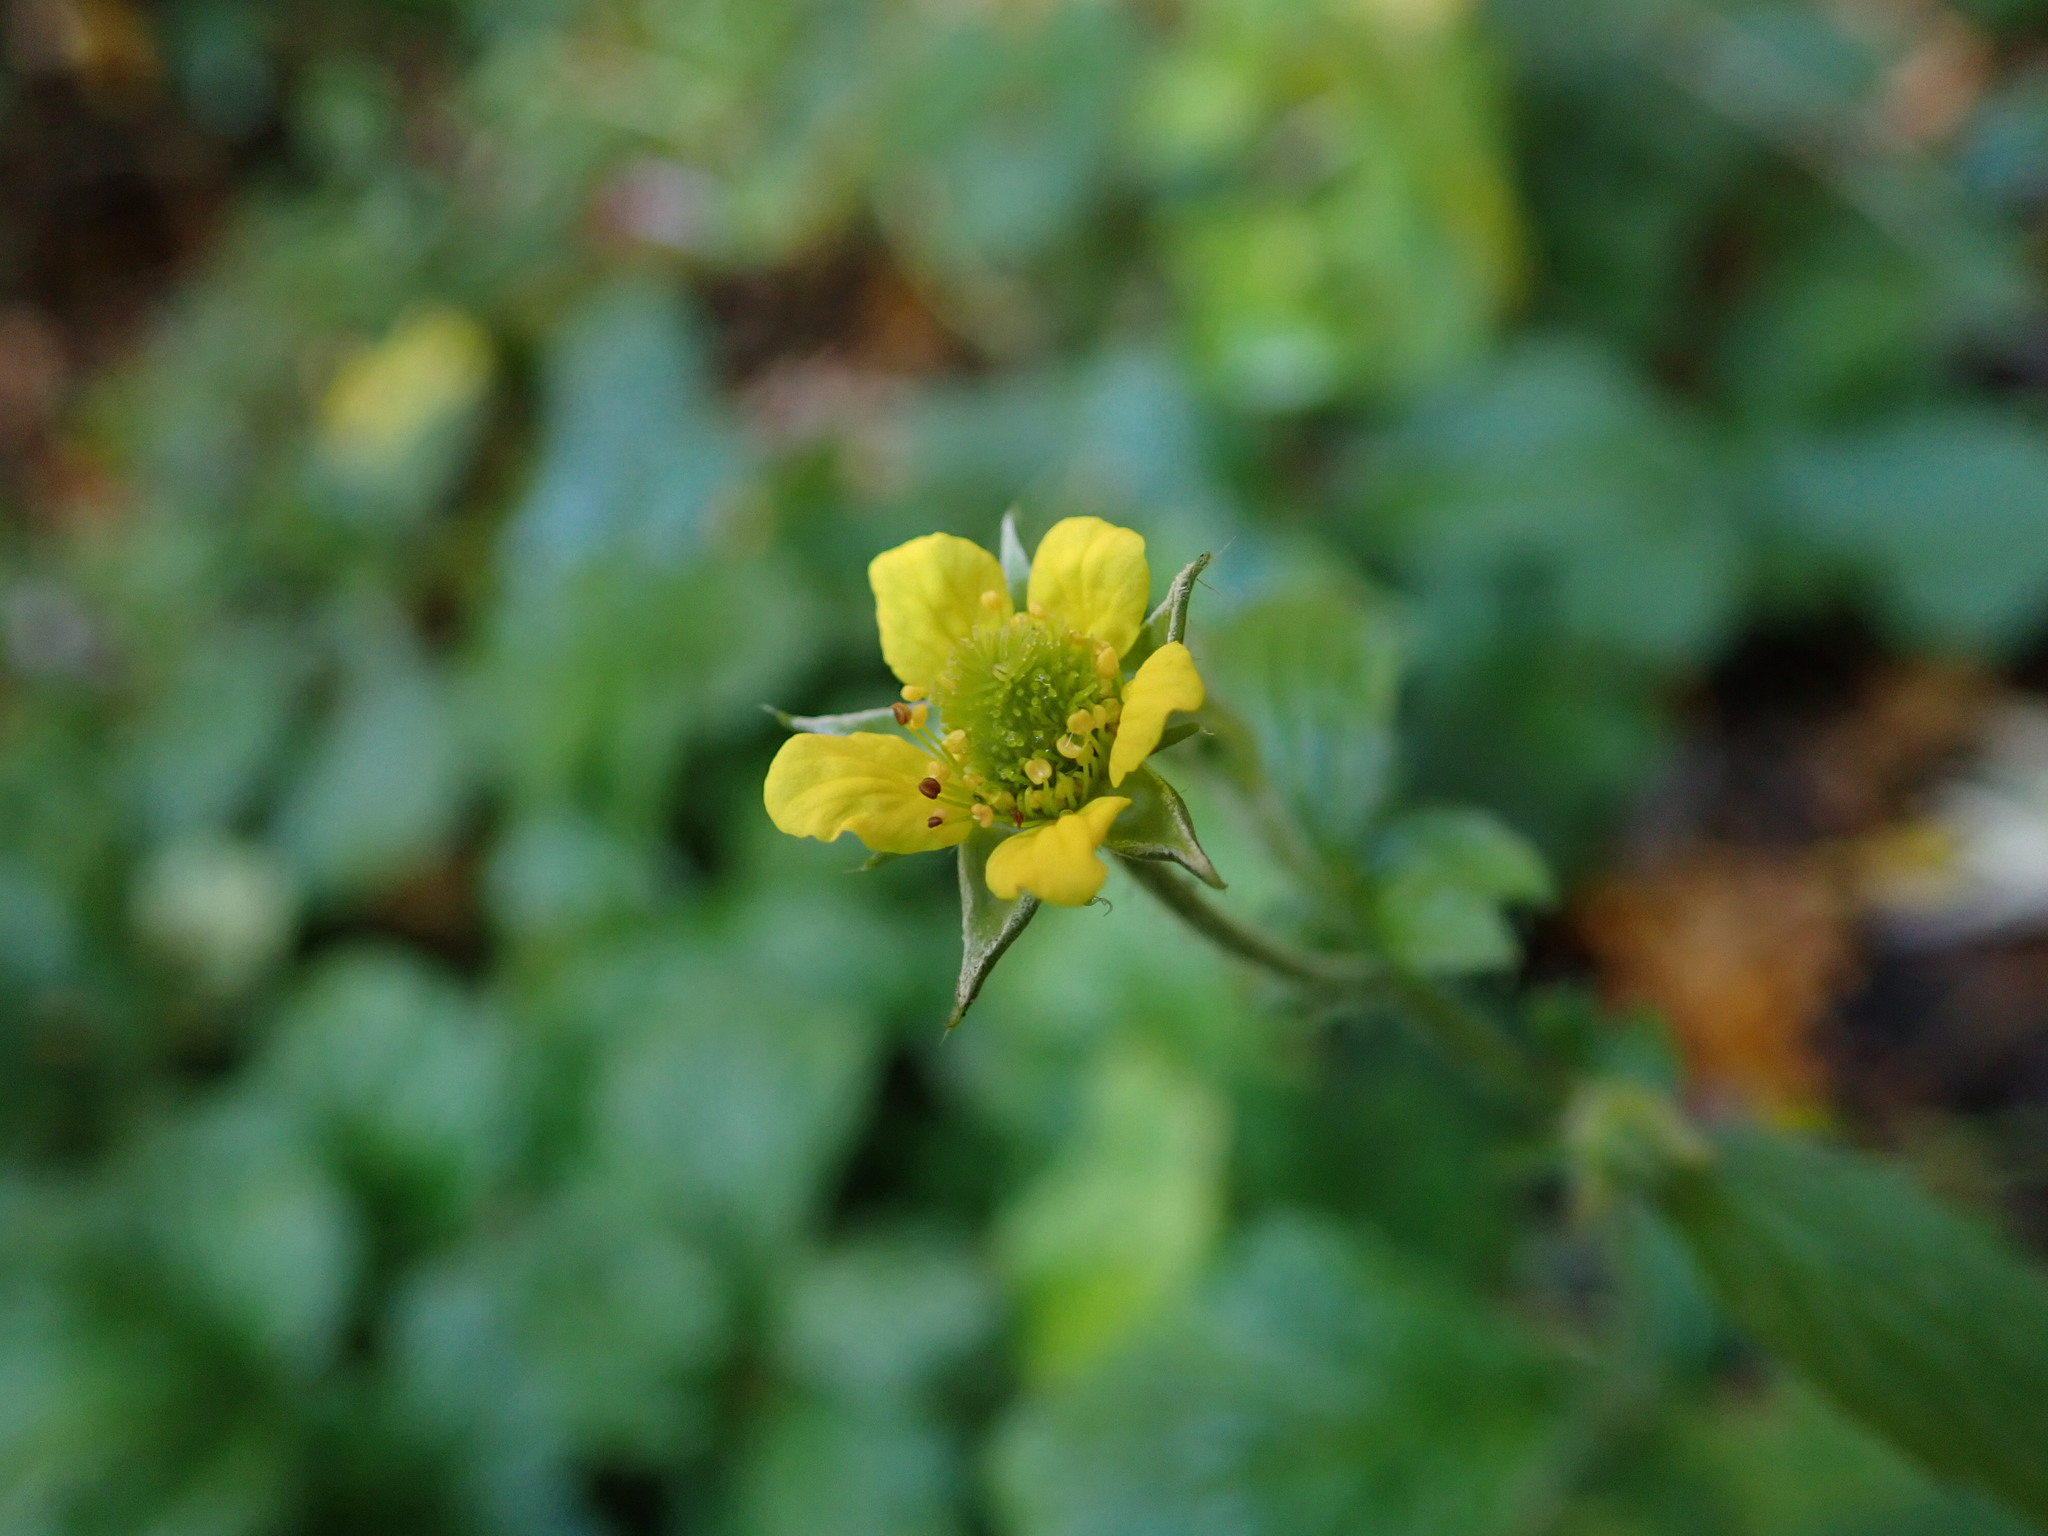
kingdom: Plantae
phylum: Tracheophyta
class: Magnoliopsida
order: Rosales
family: Rosaceae
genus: Geum
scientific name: Geum urbanum
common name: Wood avens
